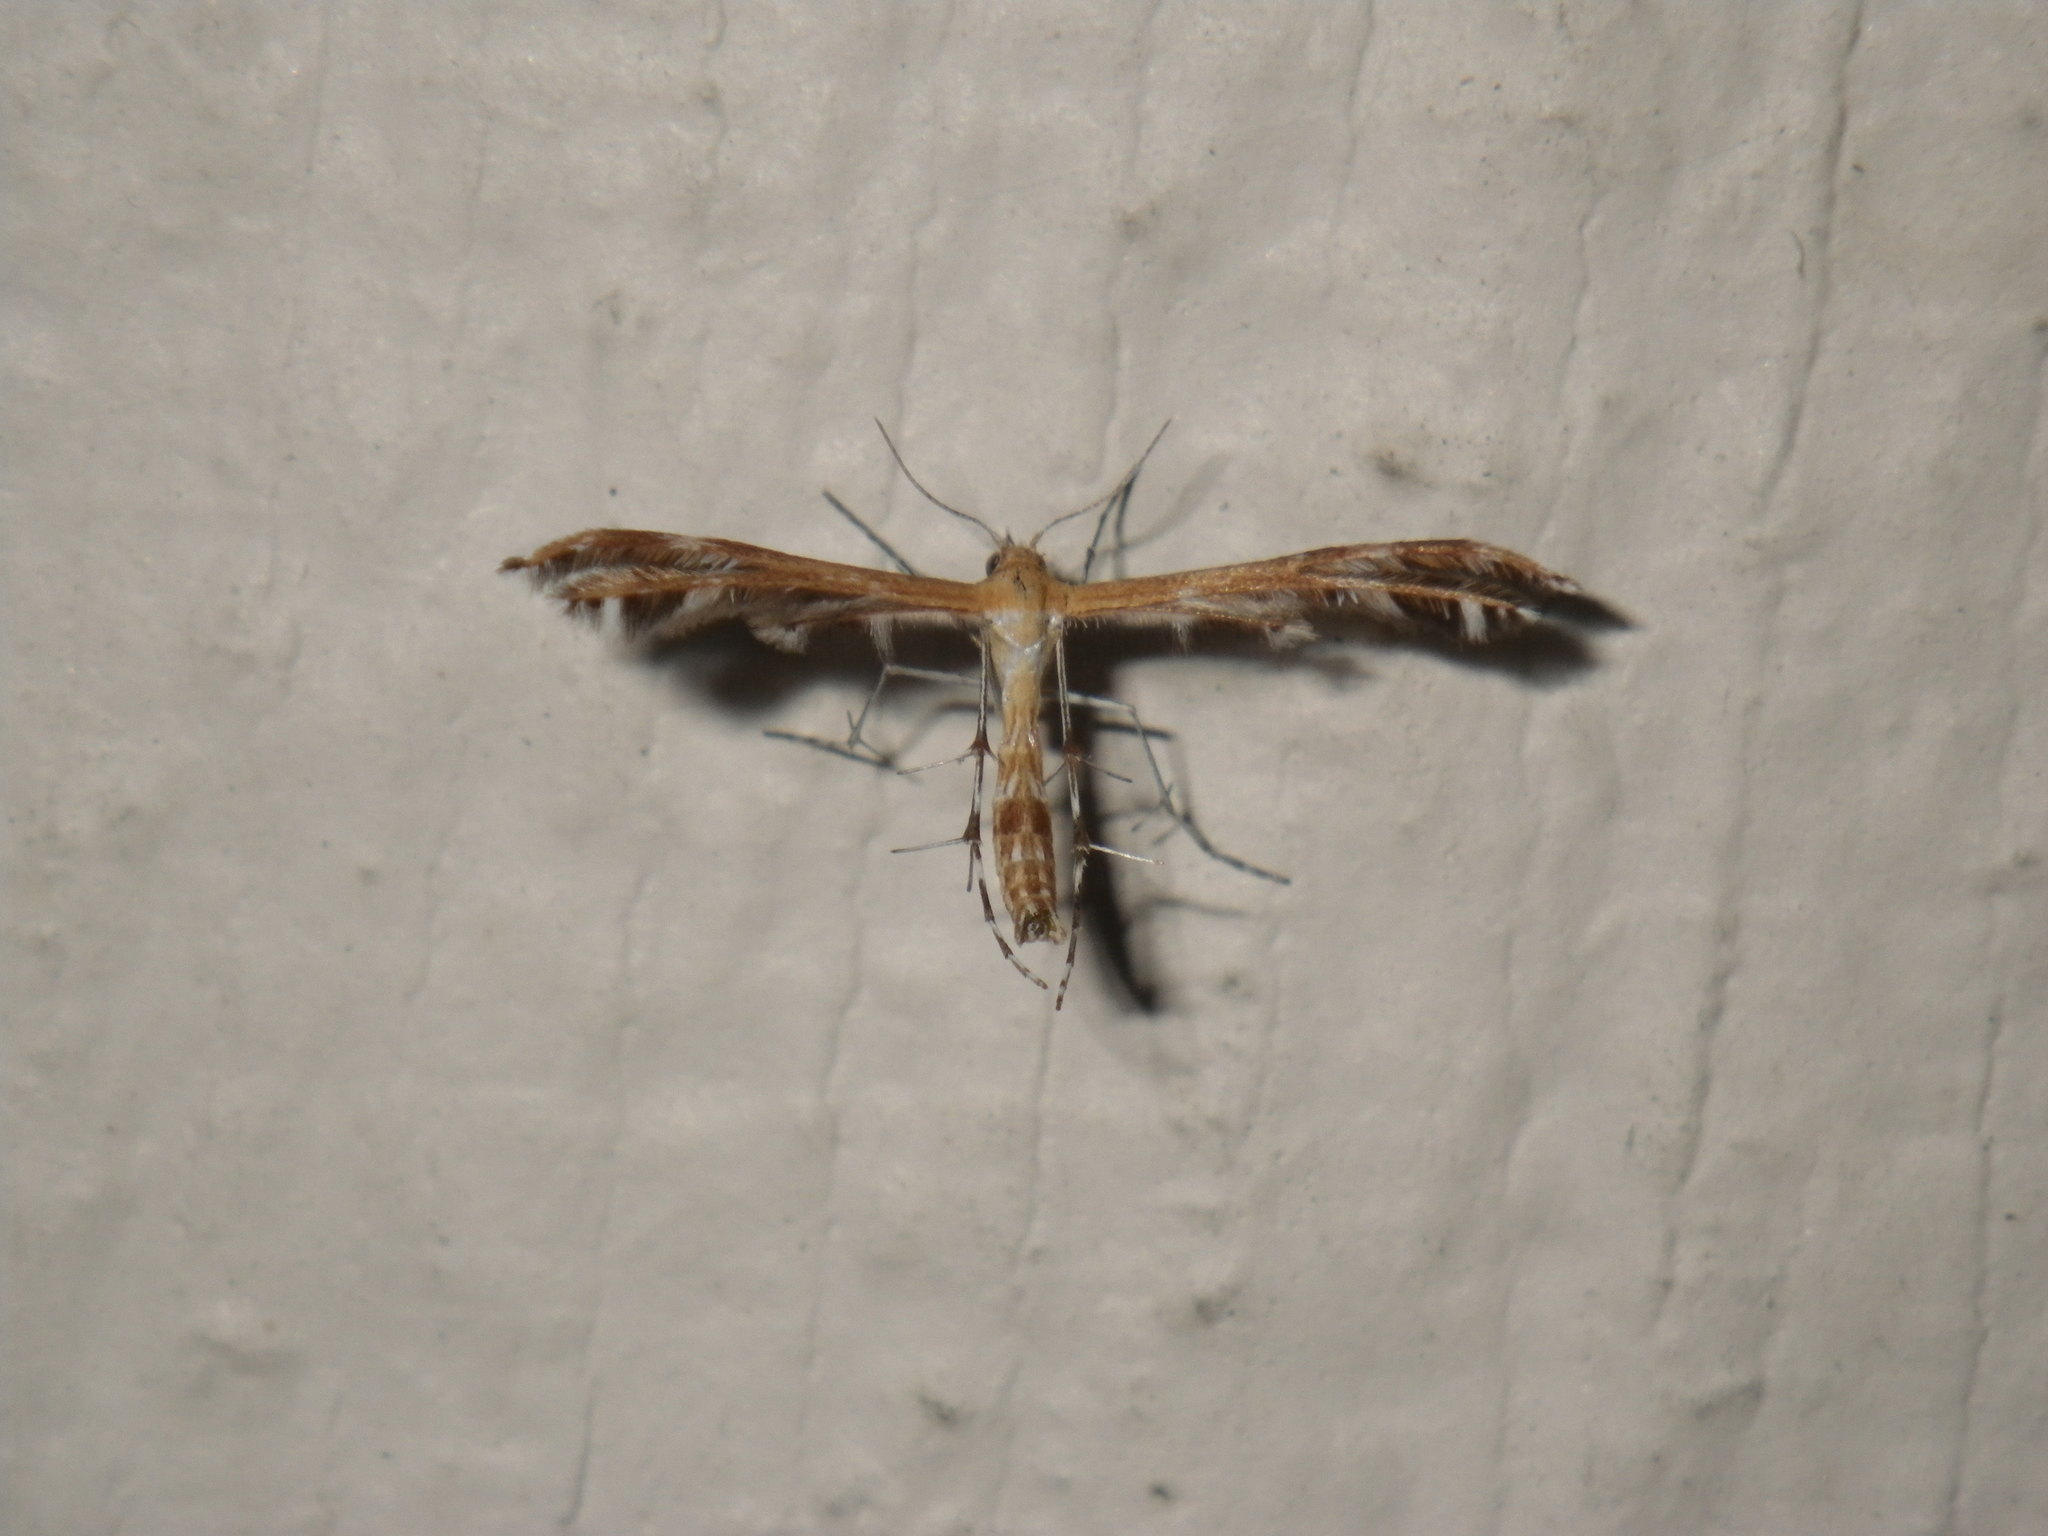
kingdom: Animalia
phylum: Arthropoda
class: Insecta
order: Lepidoptera
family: Pterophoridae
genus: Dejongia
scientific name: Dejongia californicus
